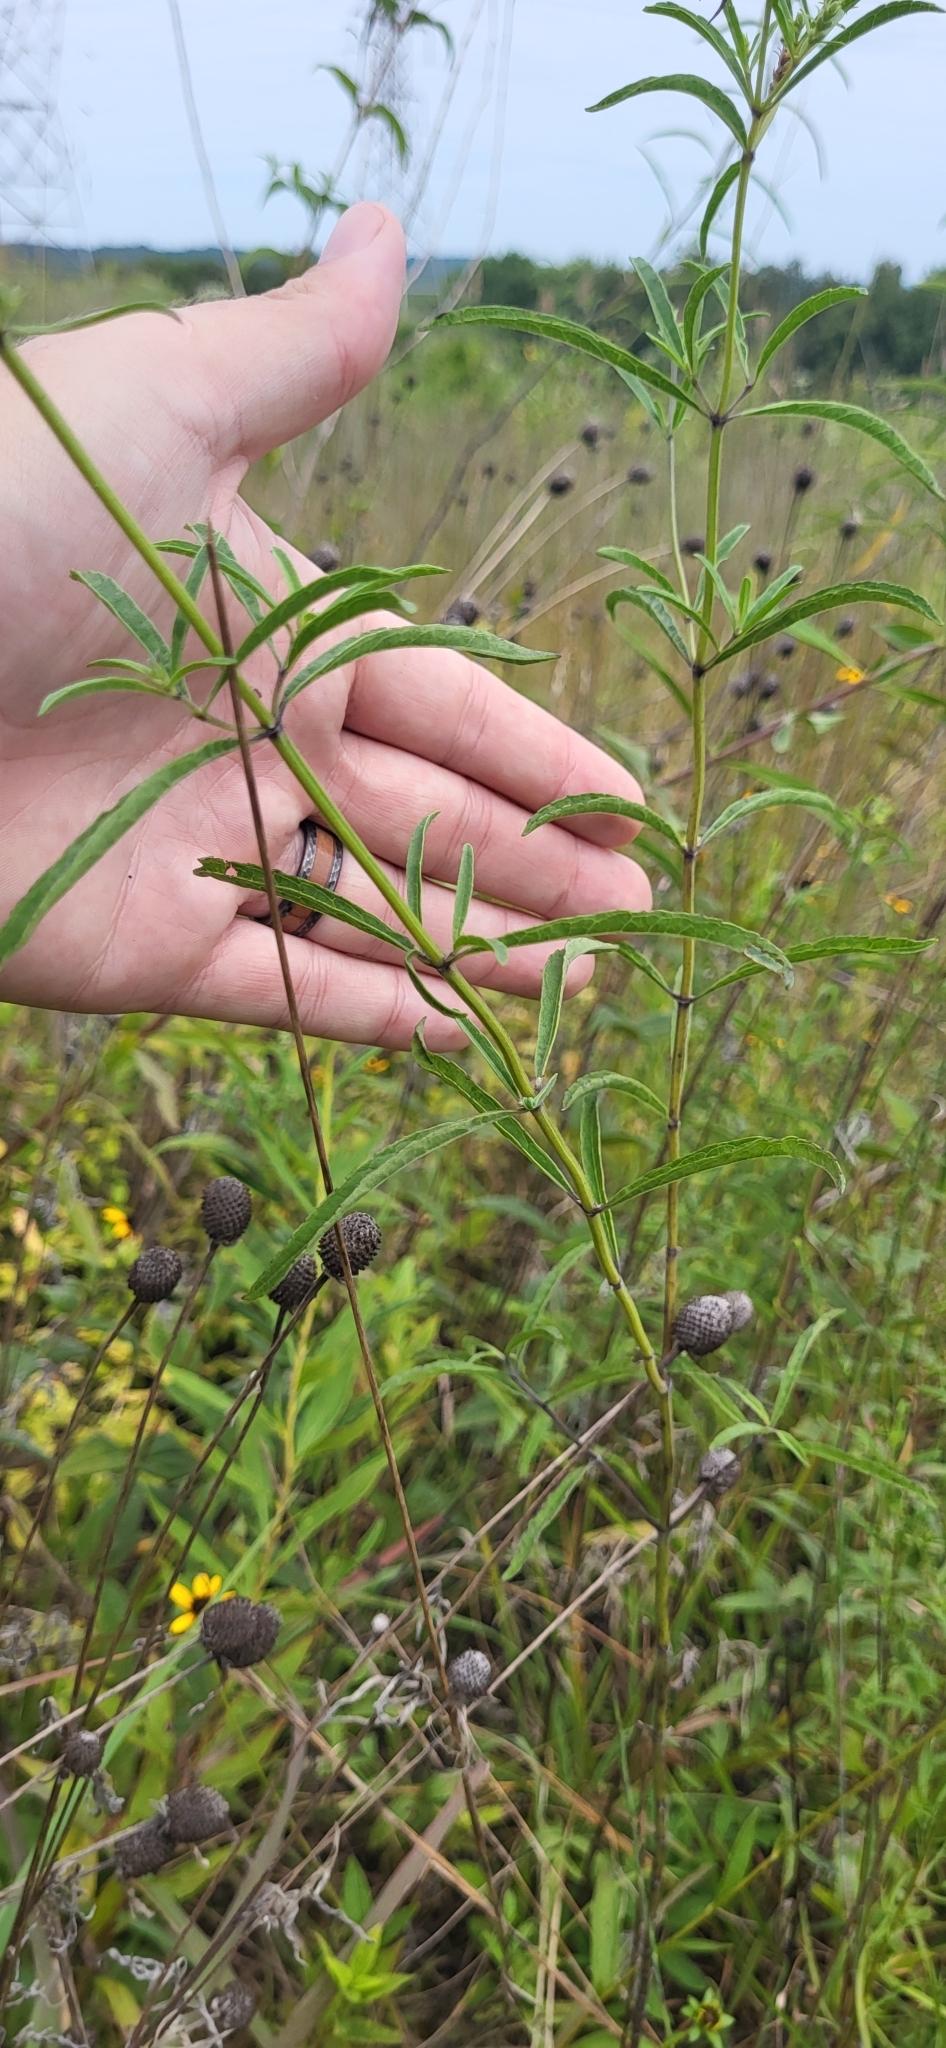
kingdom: Plantae
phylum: Tracheophyta
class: Magnoliopsida
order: Lamiales
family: Lamiaceae
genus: Salvia
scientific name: Salvia azurea
